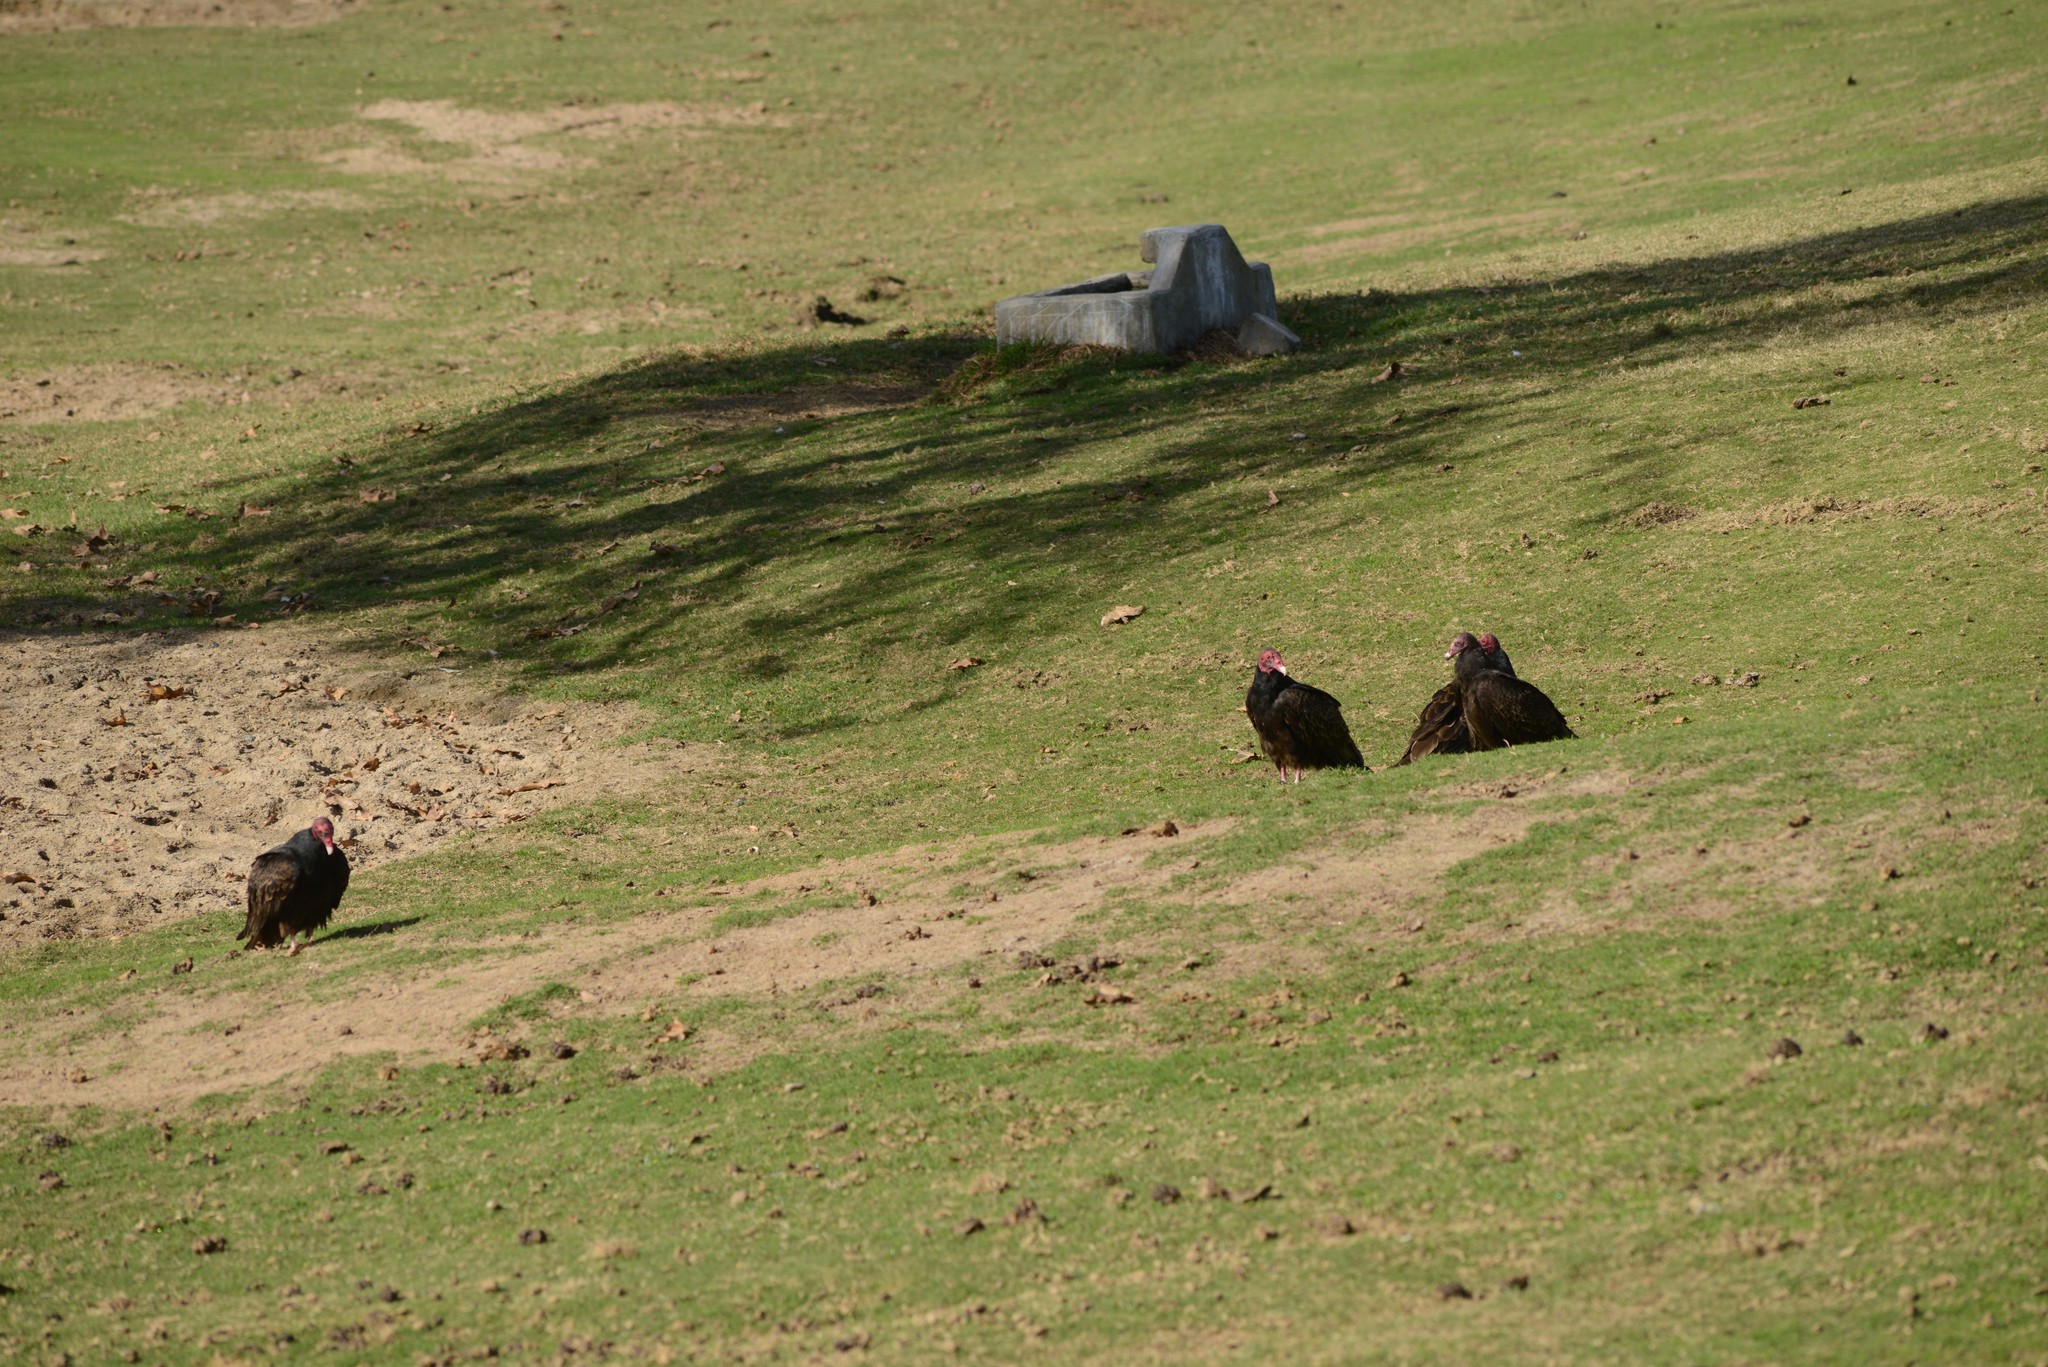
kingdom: Animalia
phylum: Chordata
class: Aves
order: Accipitriformes
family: Cathartidae
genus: Cathartes
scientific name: Cathartes aura
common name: Turkey vulture
